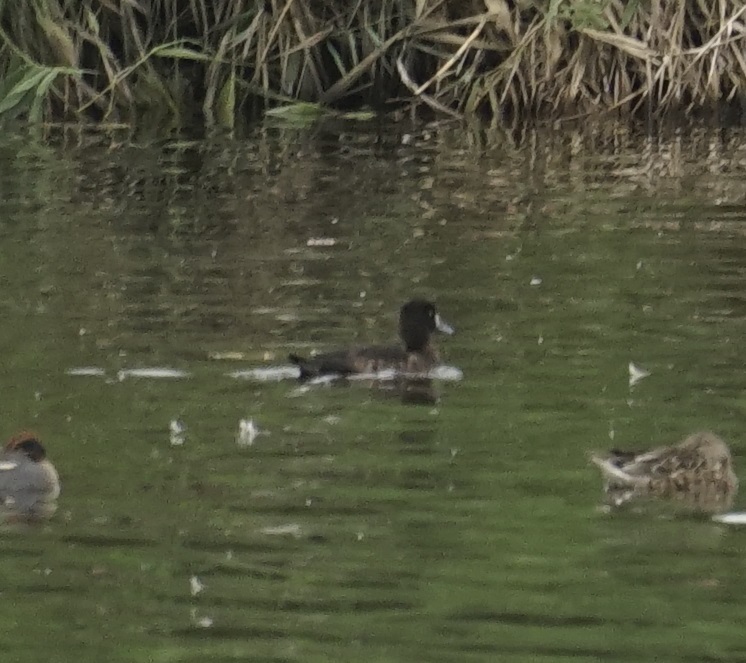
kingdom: Animalia
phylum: Chordata
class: Aves
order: Anseriformes
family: Anatidae
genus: Aythya
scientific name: Aythya fuligula
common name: Tufted duck
